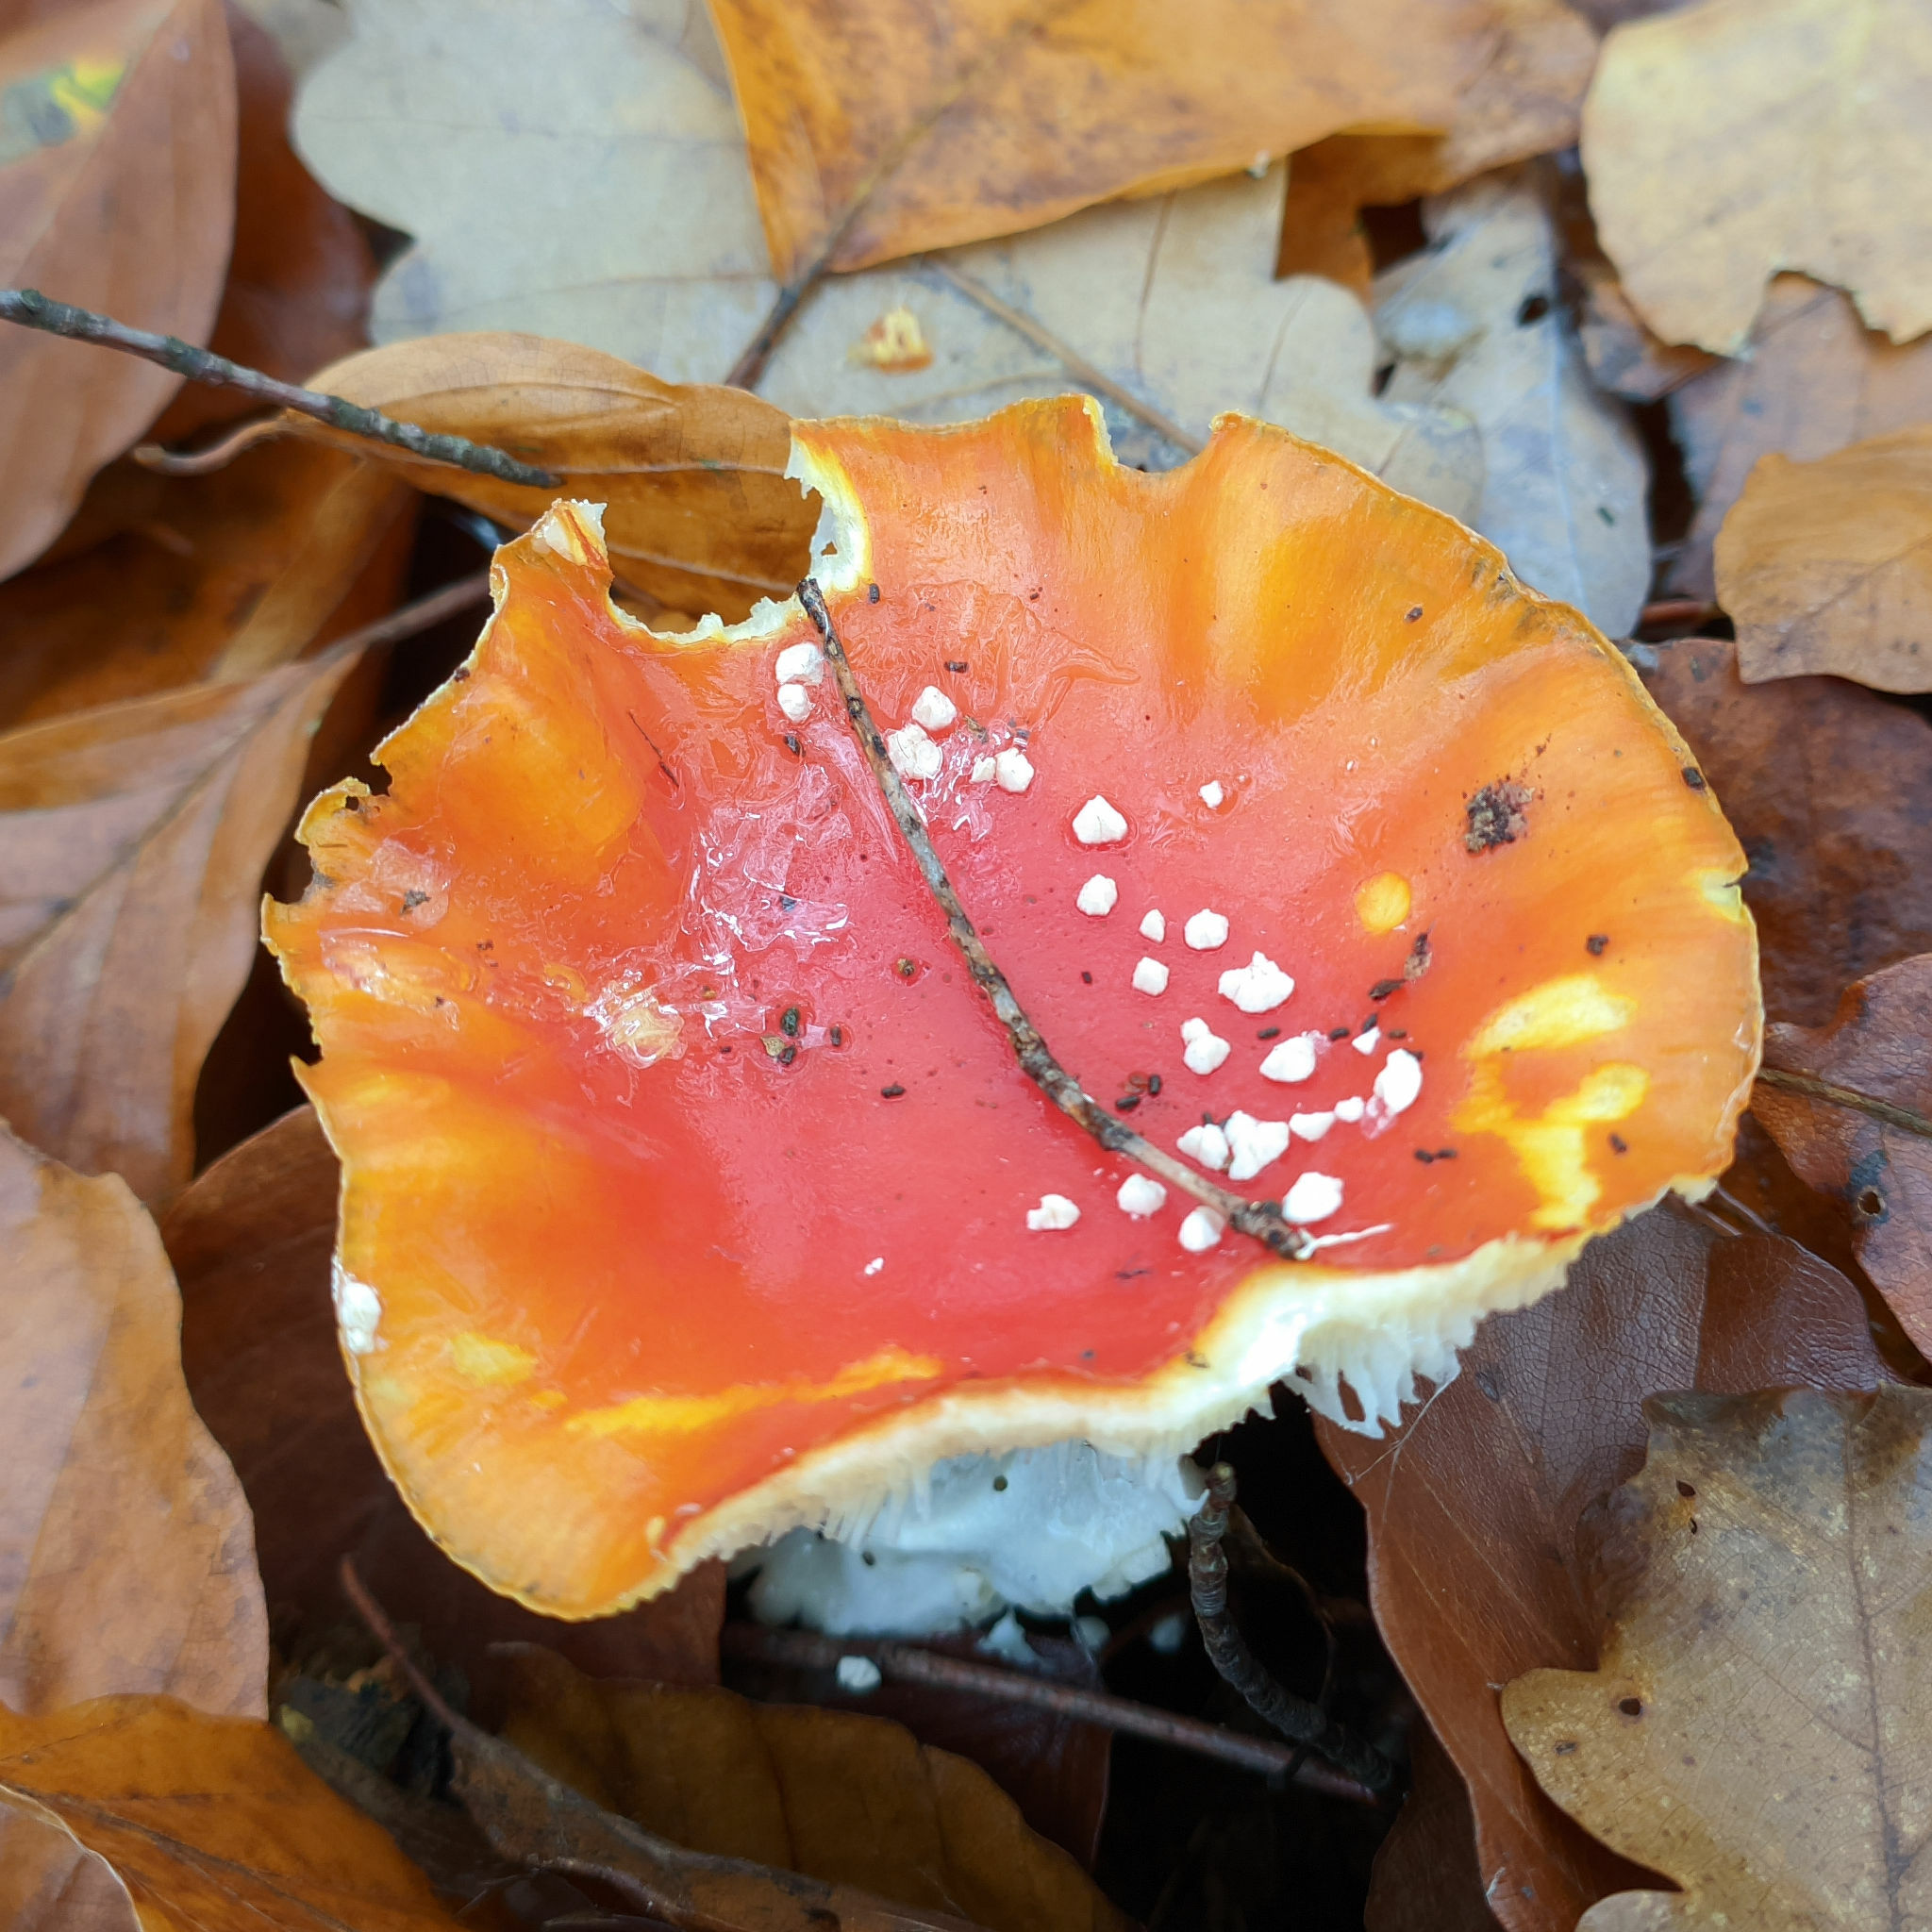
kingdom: Fungi
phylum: Basidiomycota
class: Agaricomycetes
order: Agaricales
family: Amanitaceae
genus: Amanita
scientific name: Amanita muscaria
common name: Fly agaric
